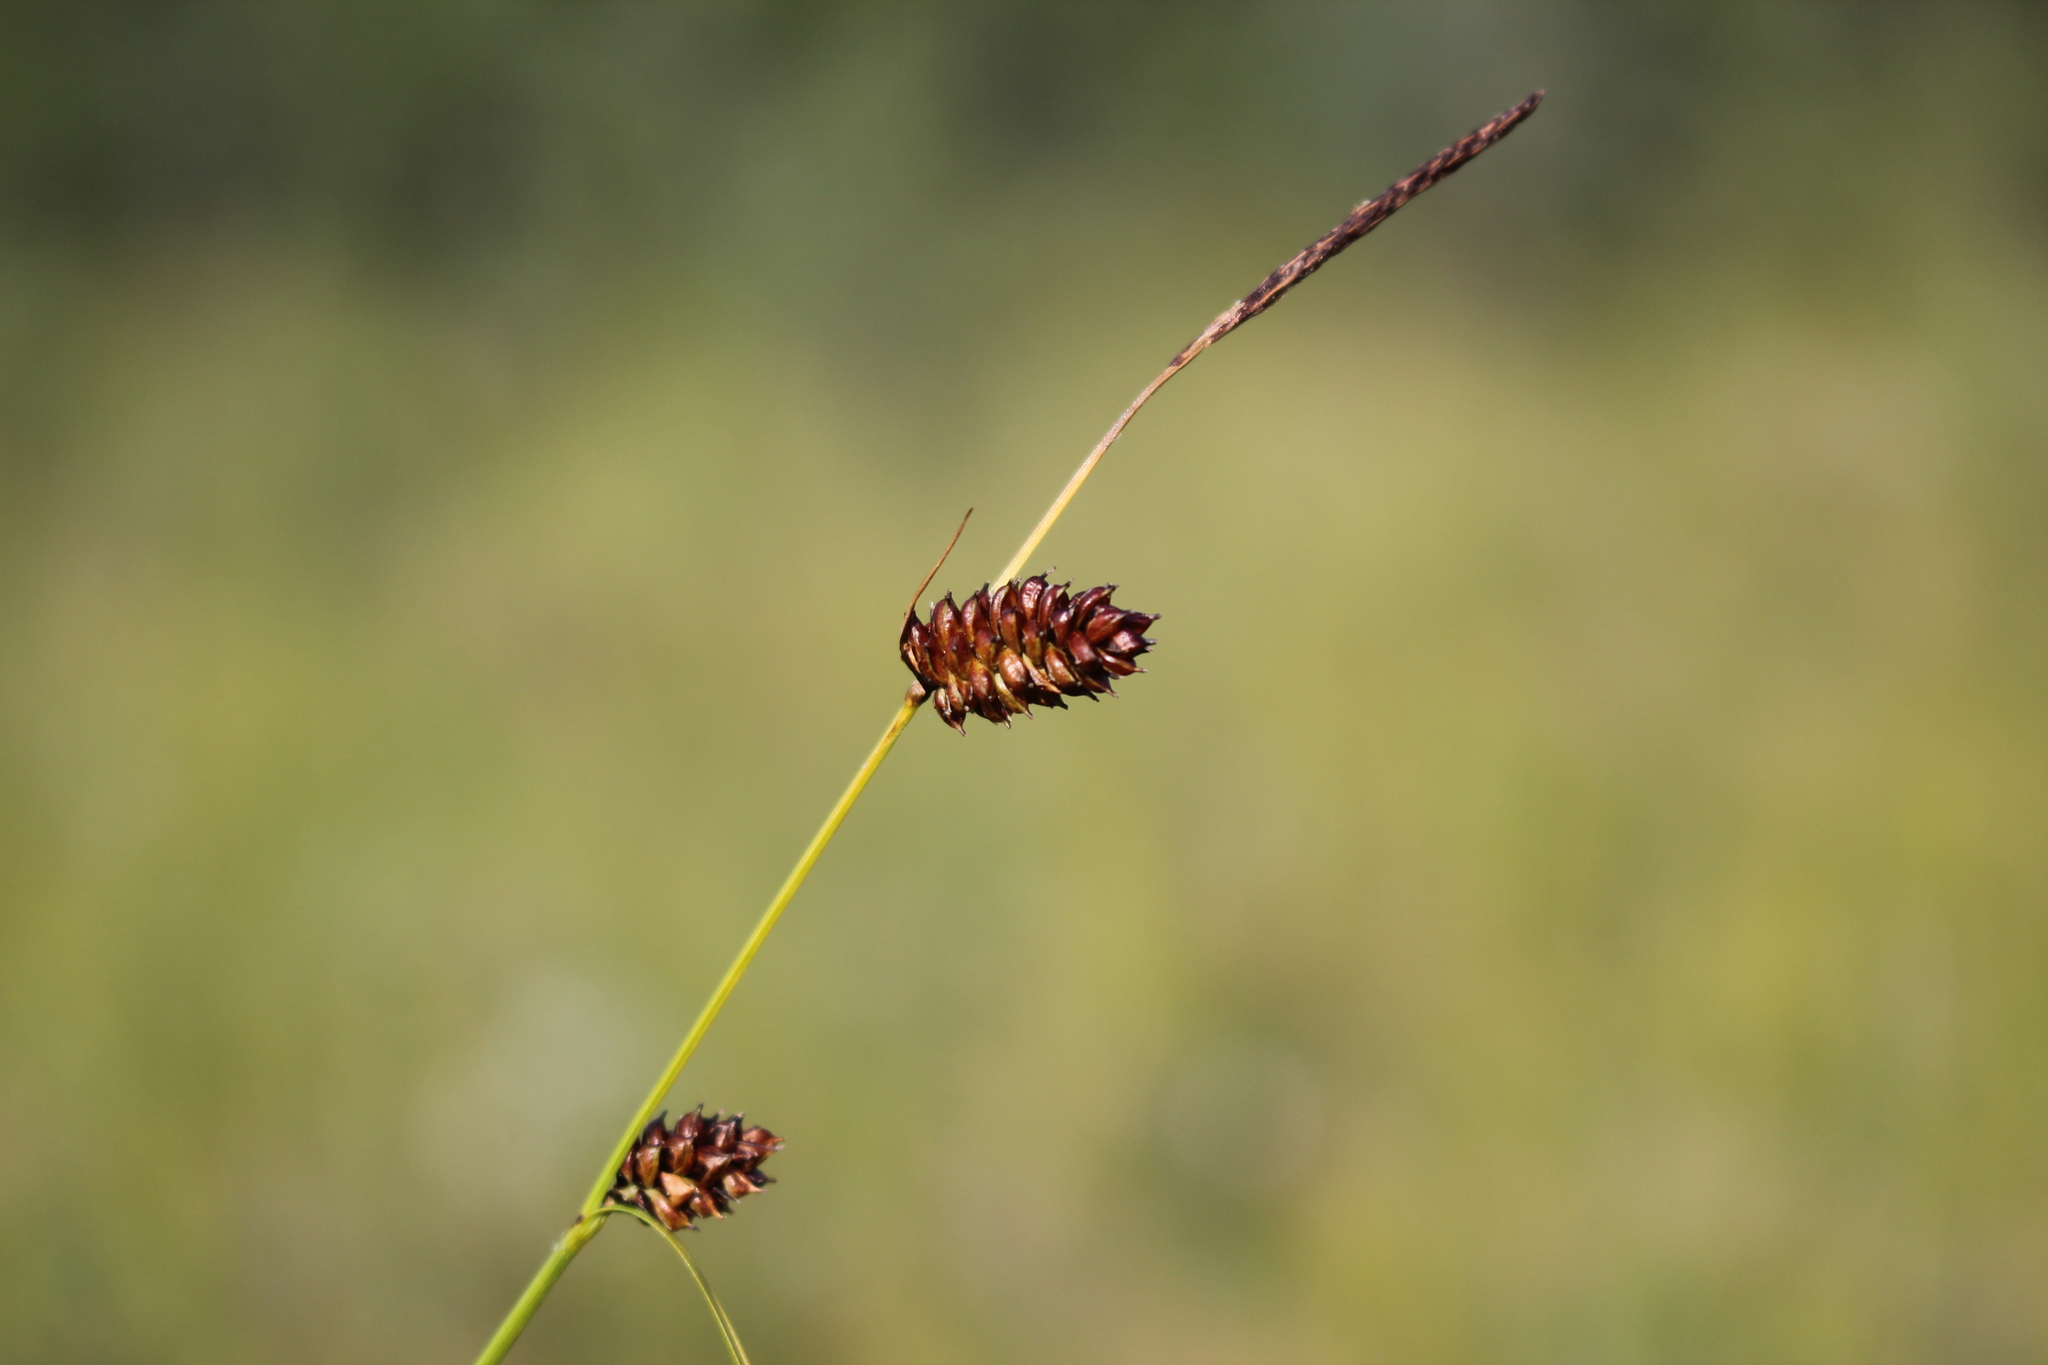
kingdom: Plantae
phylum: Tracheophyta
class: Liliopsida
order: Poales
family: Cyperaceae
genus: Carex
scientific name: Carex saxatilis
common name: Russet sedge
